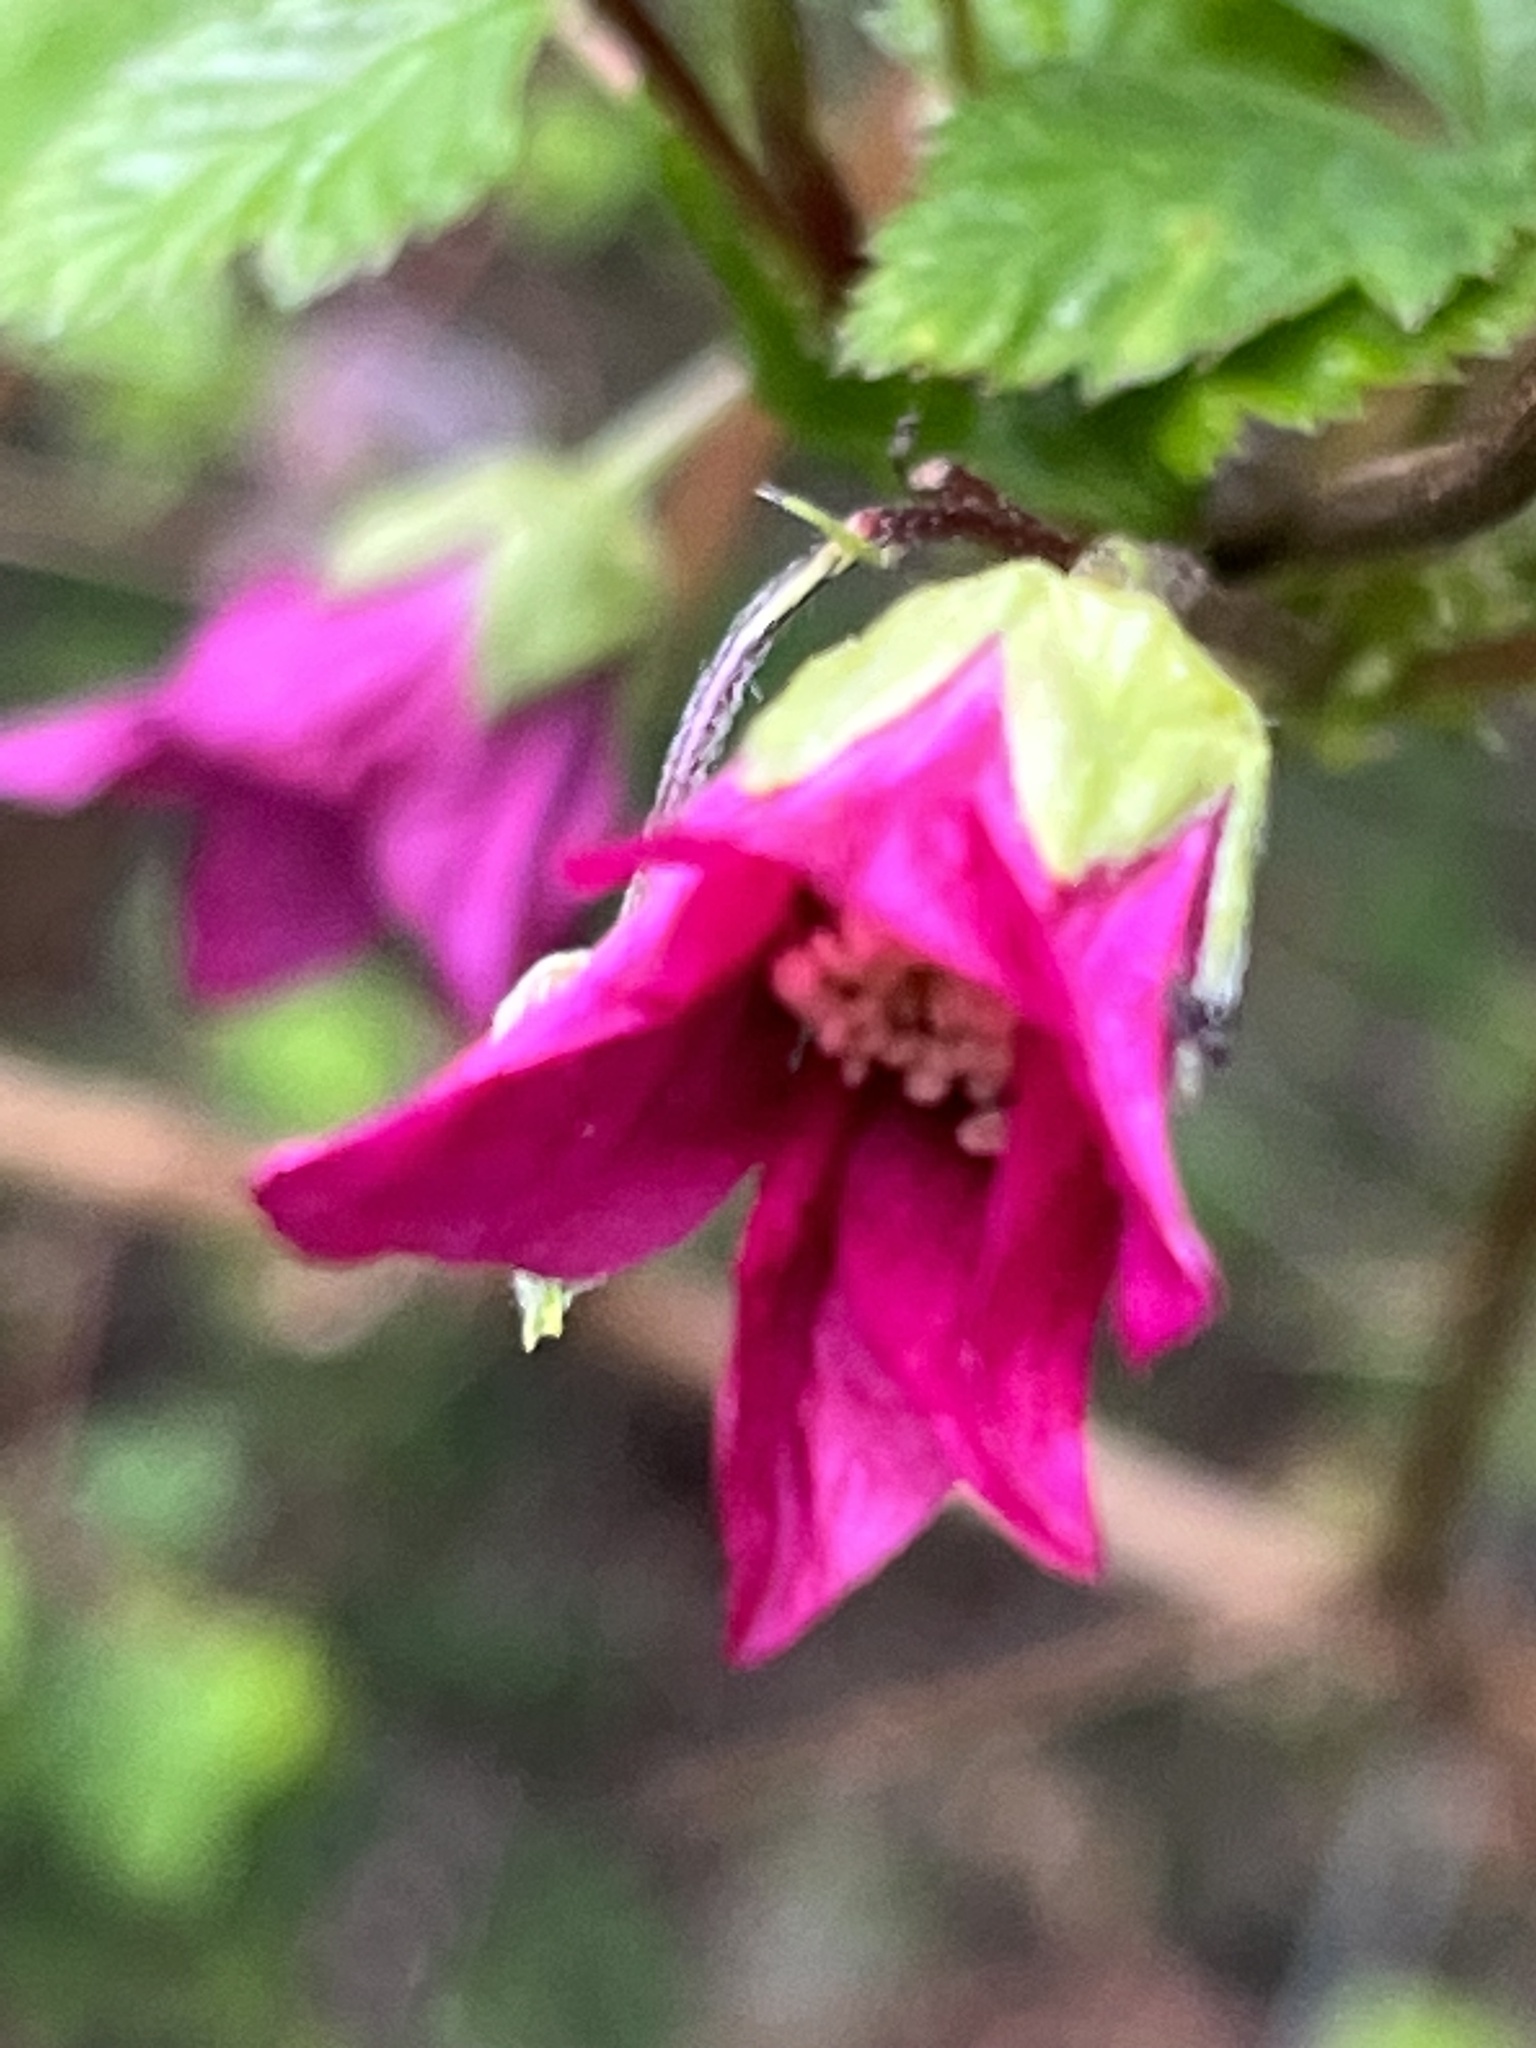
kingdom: Plantae
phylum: Tracheophyta
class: Magnoliopsida
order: Rosales
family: Rosaceae
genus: Rubus
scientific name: Rubus spectabilis
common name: Salmonberry
